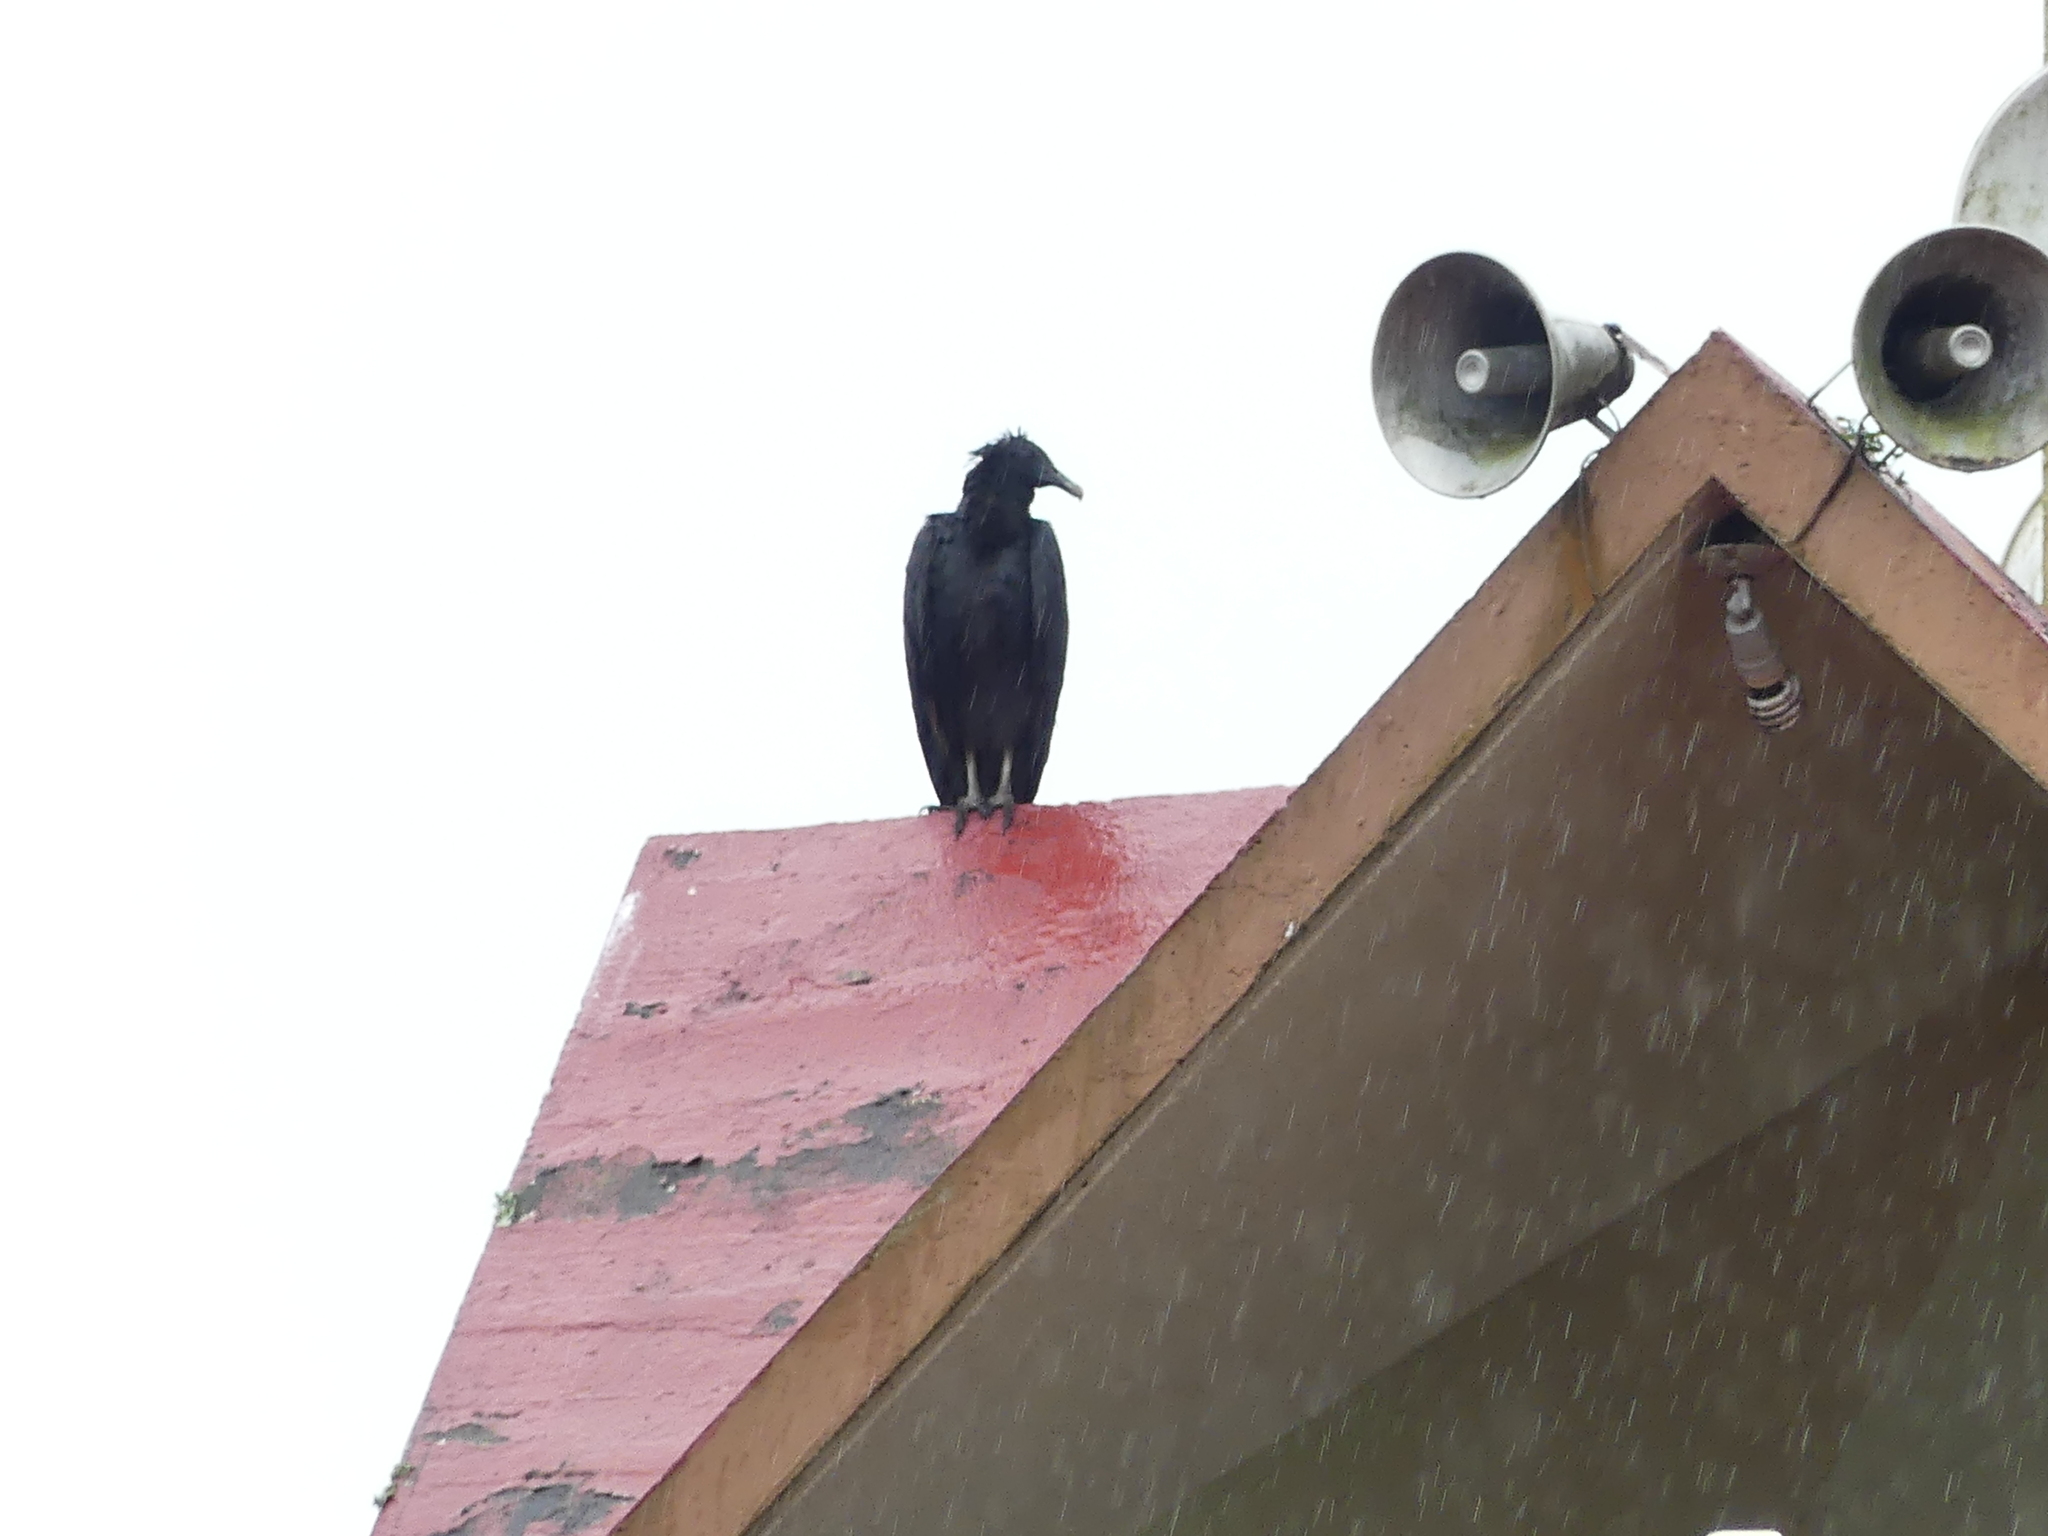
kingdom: Animalia
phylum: Chordata
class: Aves
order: Accipitriformes
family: Cathartidae
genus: Coragyps
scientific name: Coragyps atratus
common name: Black vulture
